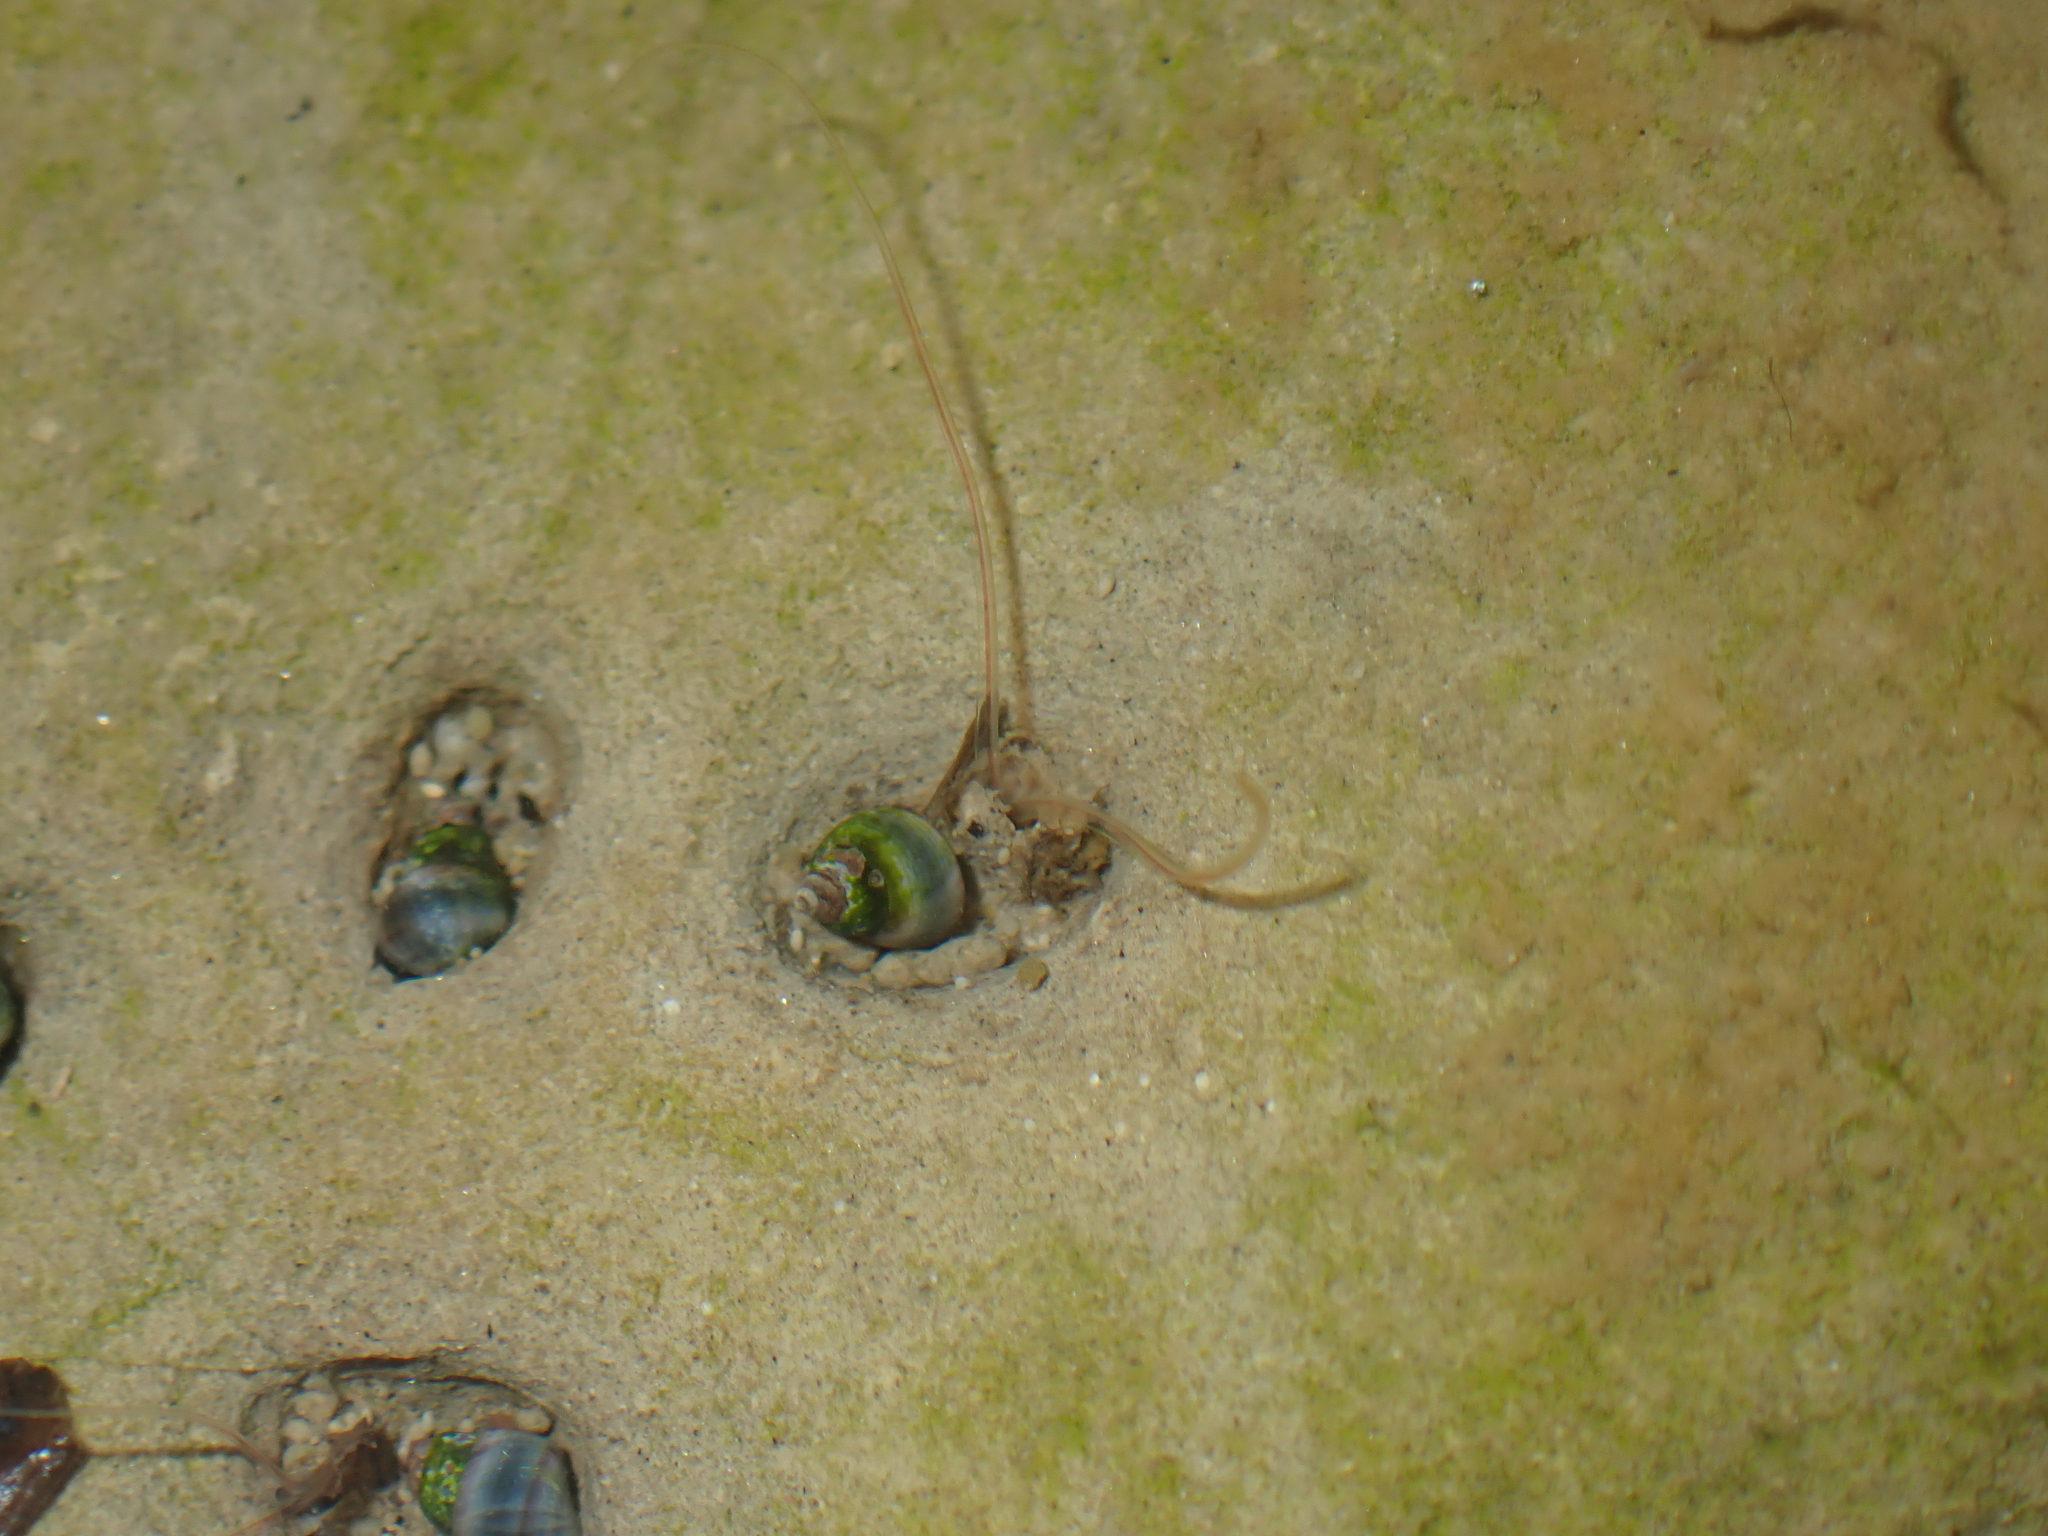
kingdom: Animalia
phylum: Mollusca
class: Gastropoda
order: Littorinimorpha
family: Littorinidae
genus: Austrolittorina
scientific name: Austrolittorina antipodum
